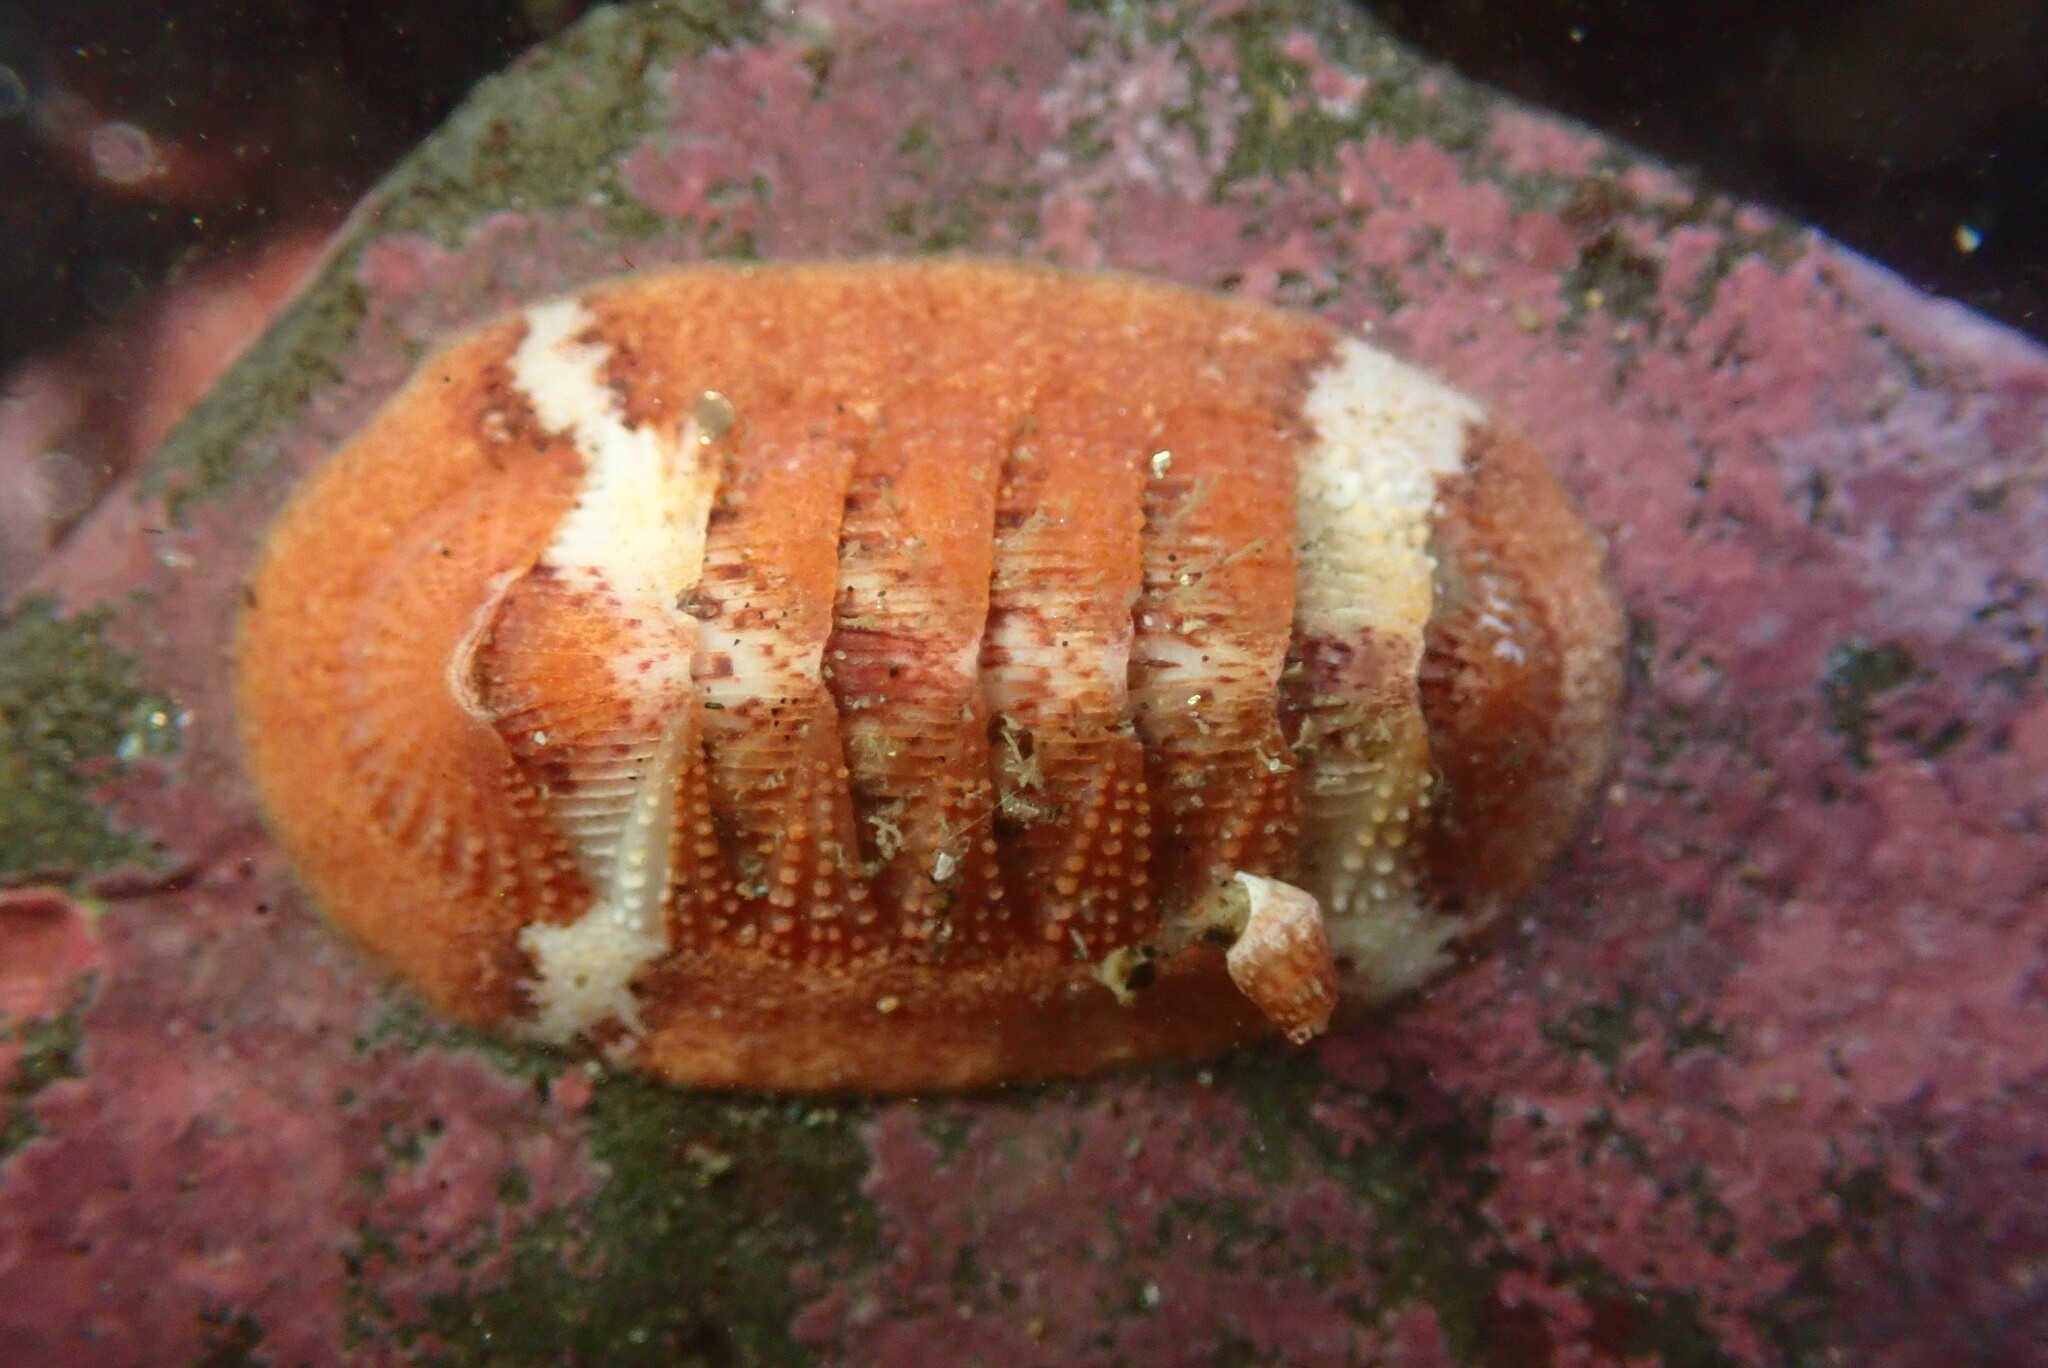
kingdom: Animalia
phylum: Mollusca
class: Polyplacophora
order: Chitonida
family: Ischnochitonidae
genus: Lepidozona
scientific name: Lepidozona mertensii
